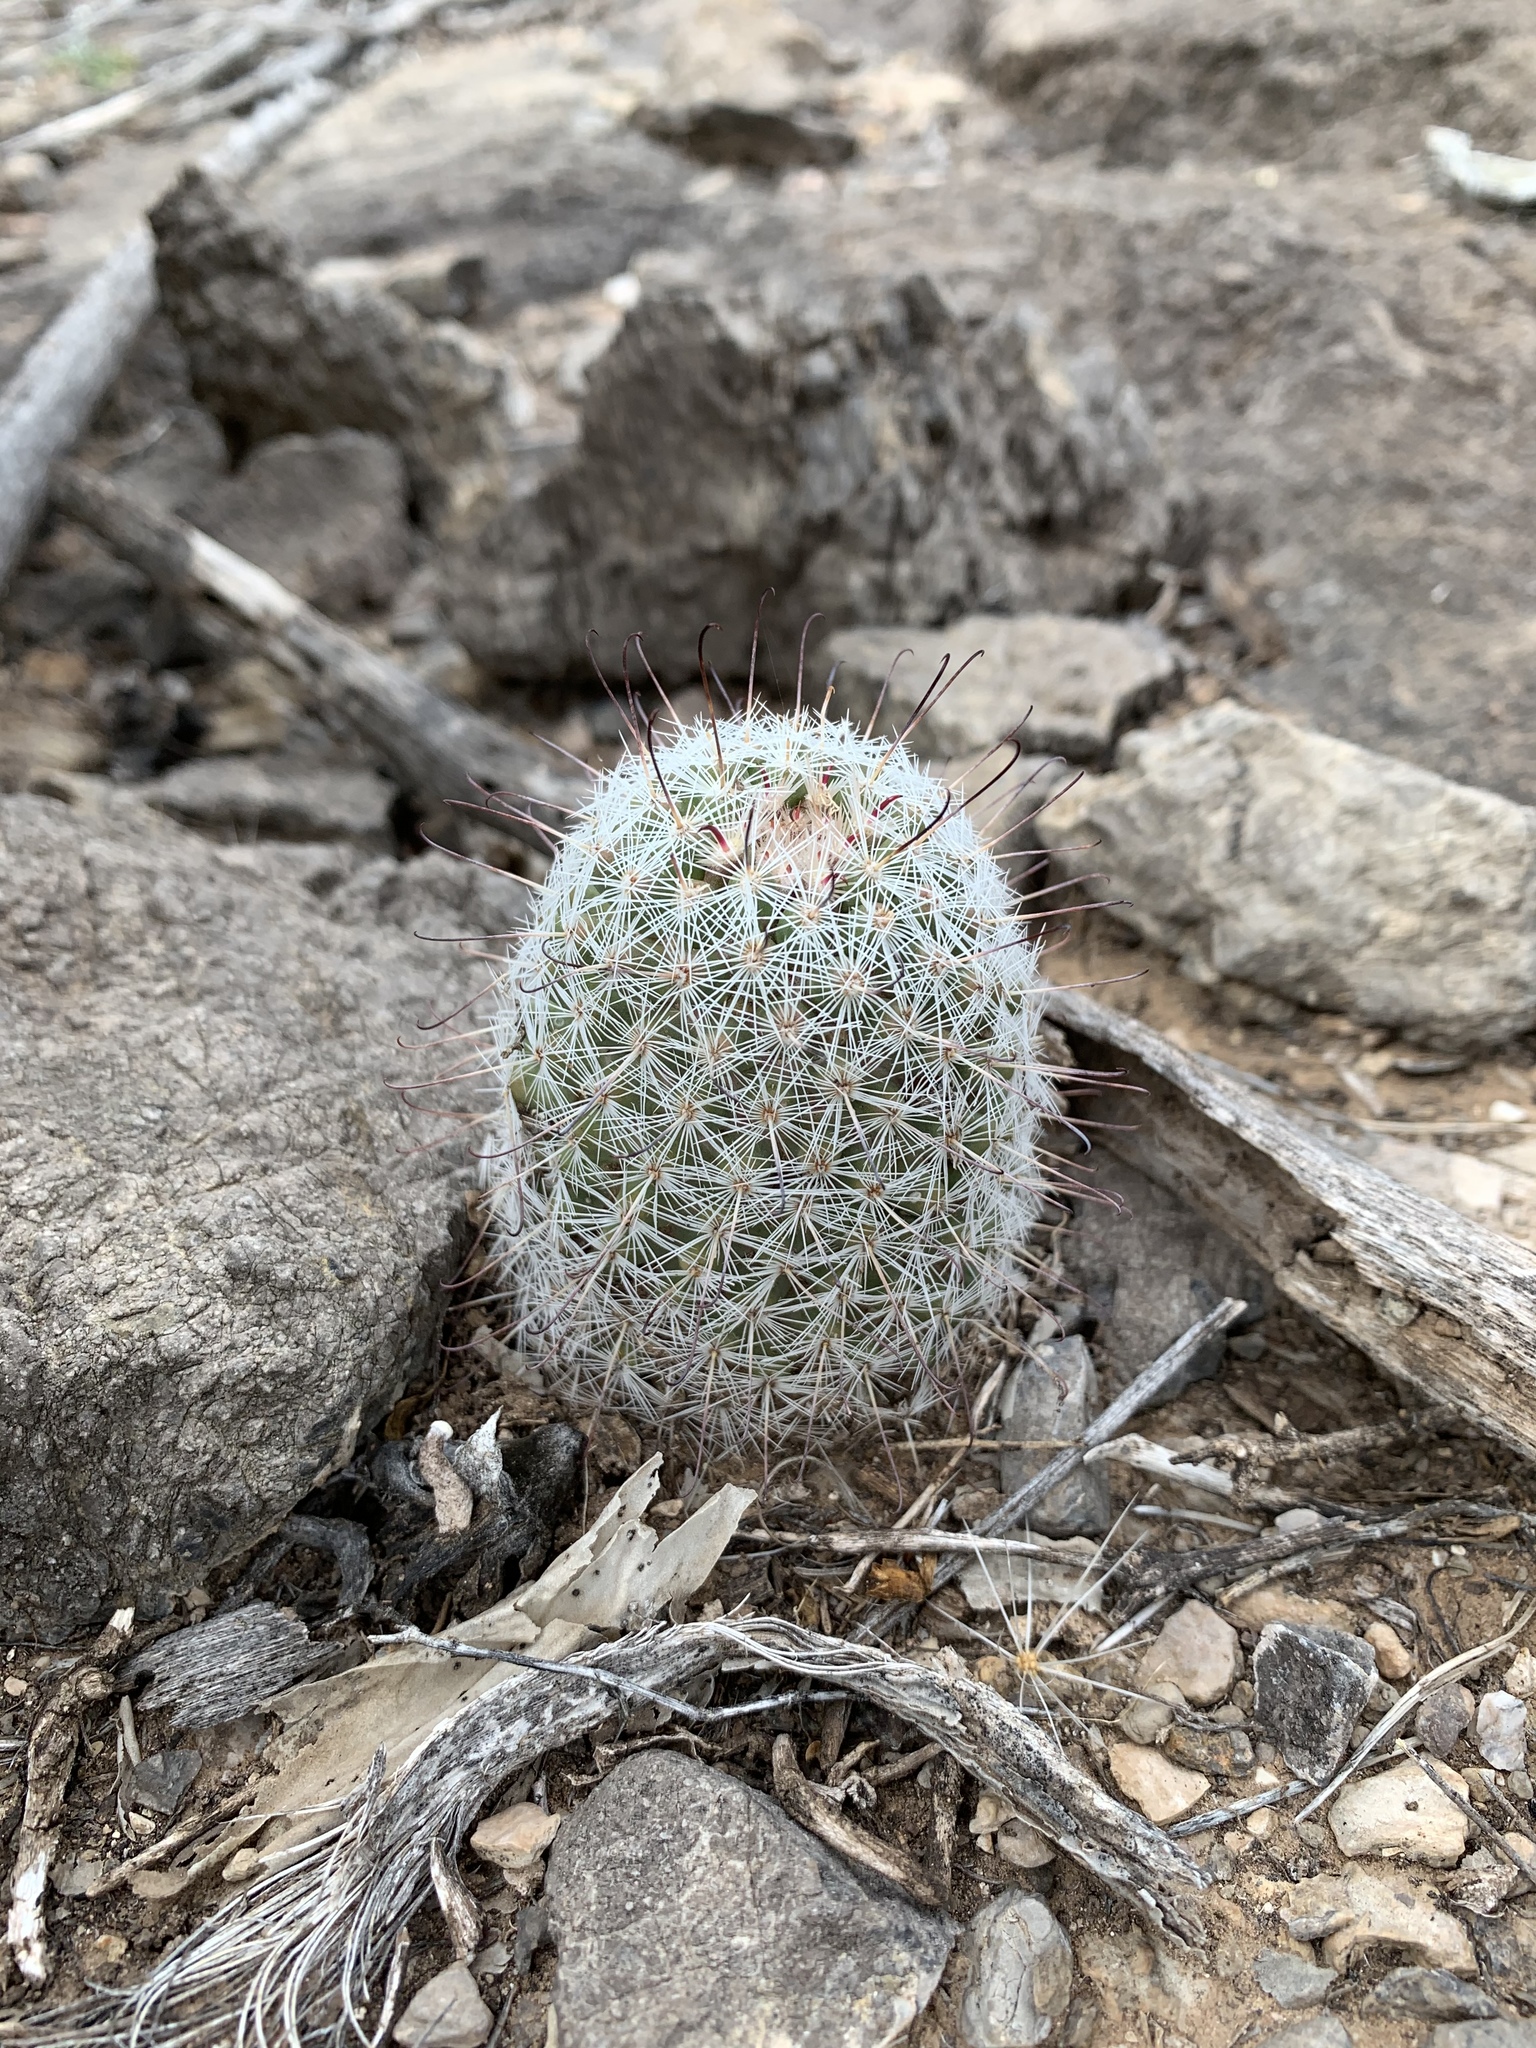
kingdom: Plantae
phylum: Tracheophyta
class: Magnoliopsida
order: Caryophyllales
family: Cactaceae
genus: Cochemiea
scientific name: Cochemiea grahamii
